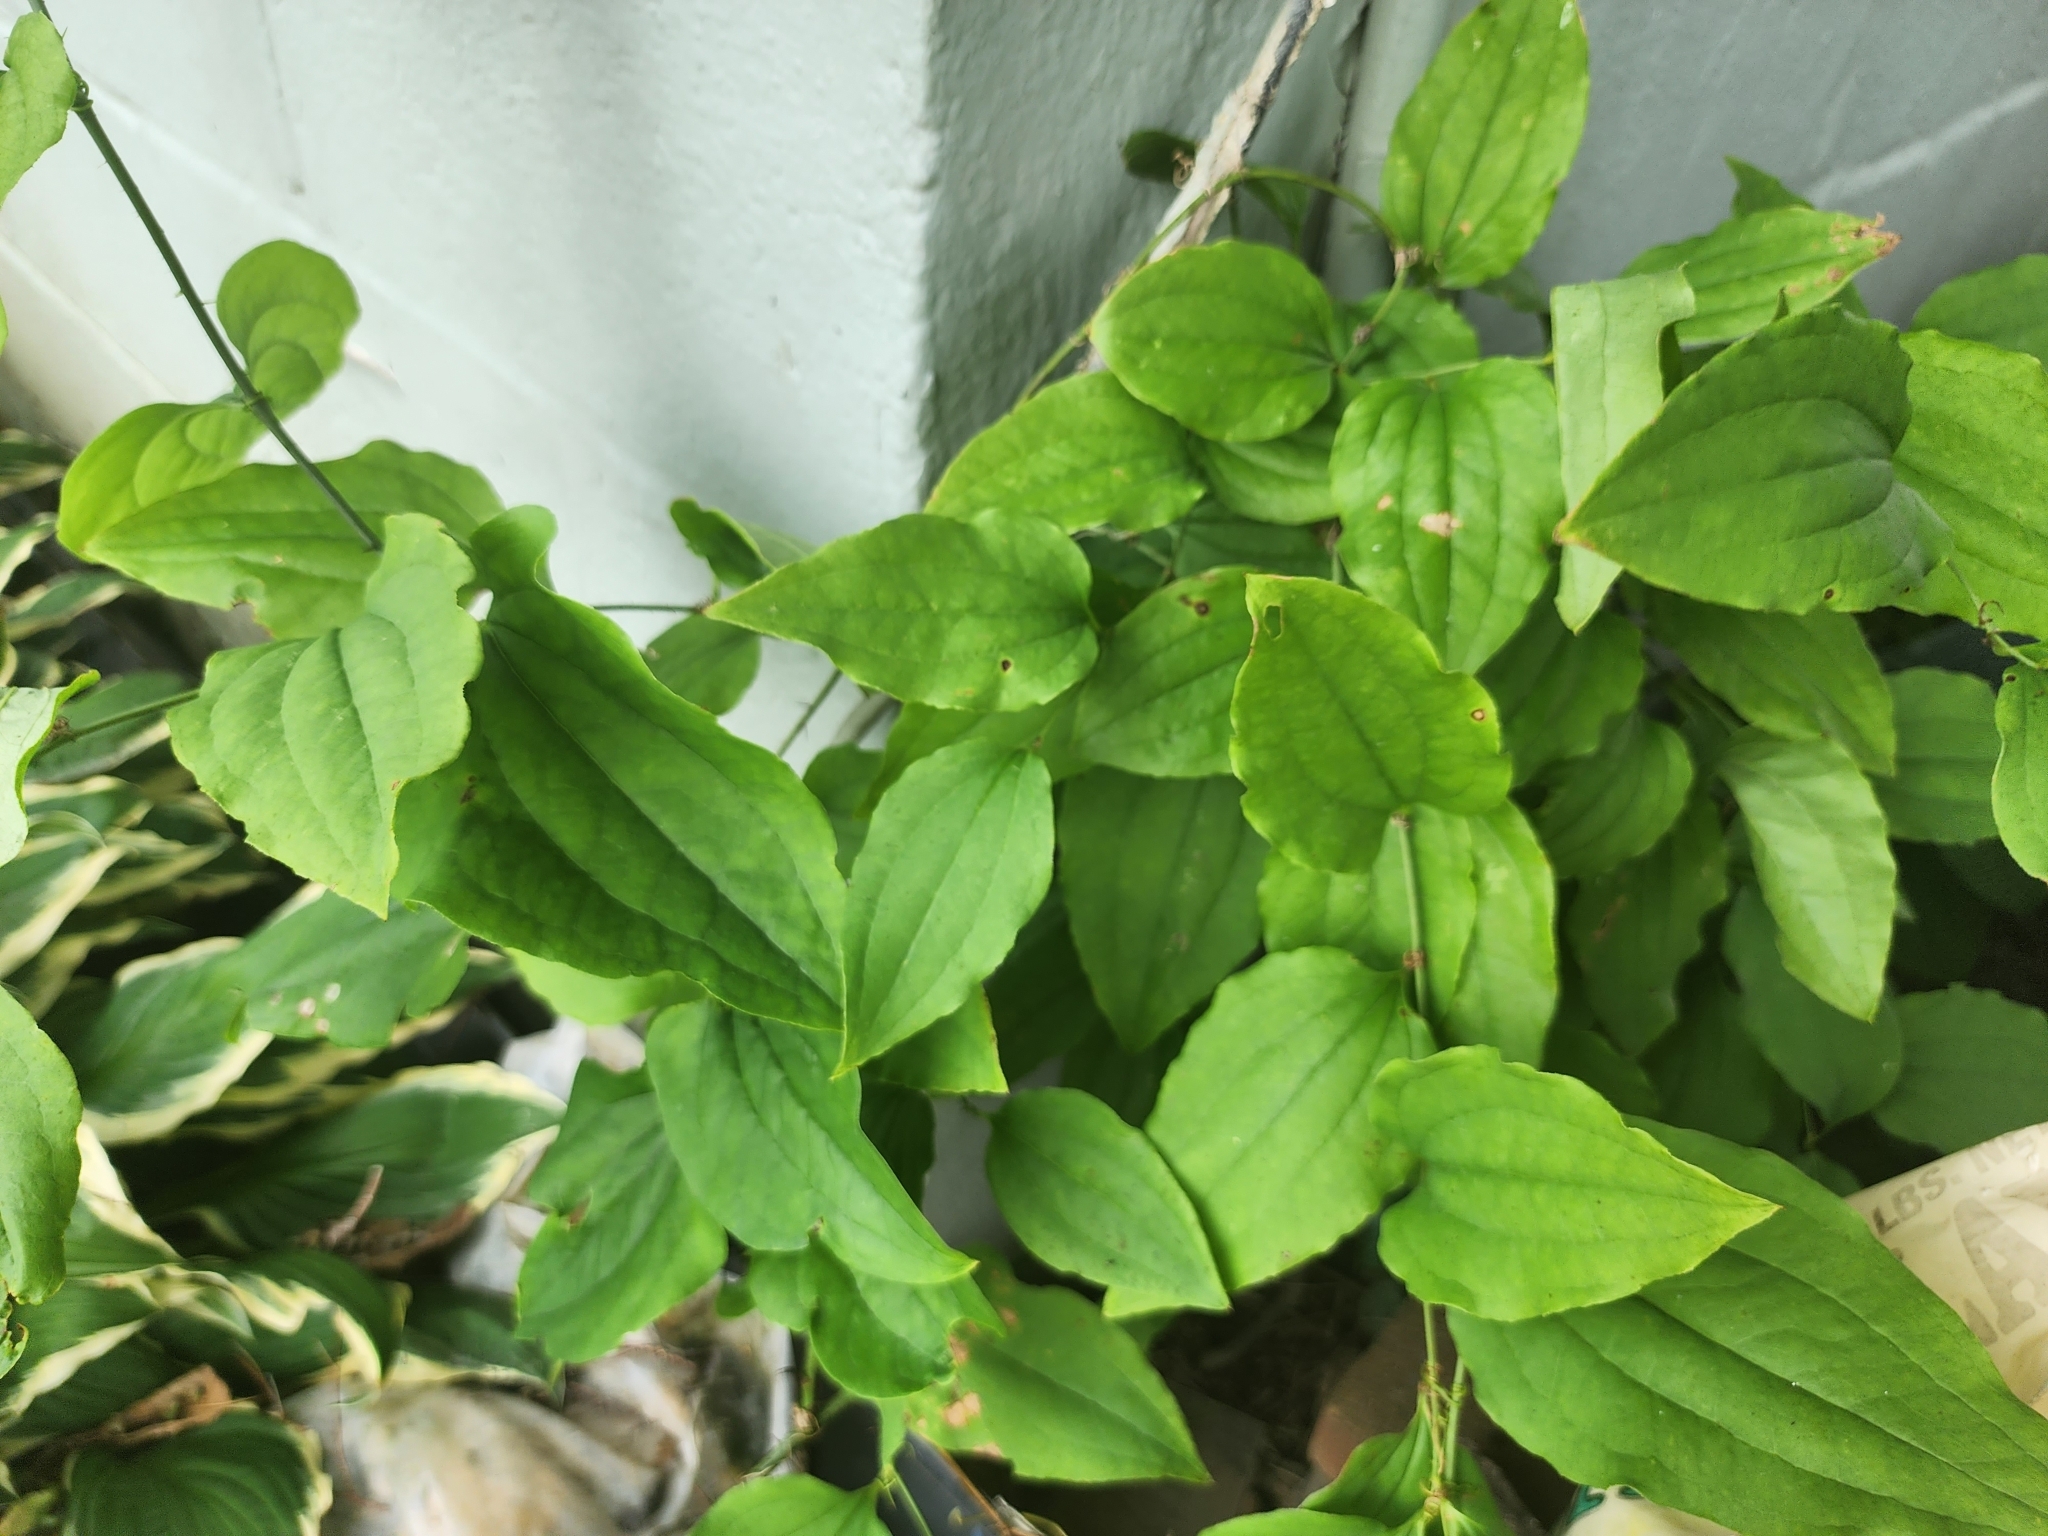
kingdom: Plantae
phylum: Tracheophyta
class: Liliopsida
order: Liliales
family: Smilacaceae
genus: Smilax
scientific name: Smilax tamnoides
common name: Hellfetter
